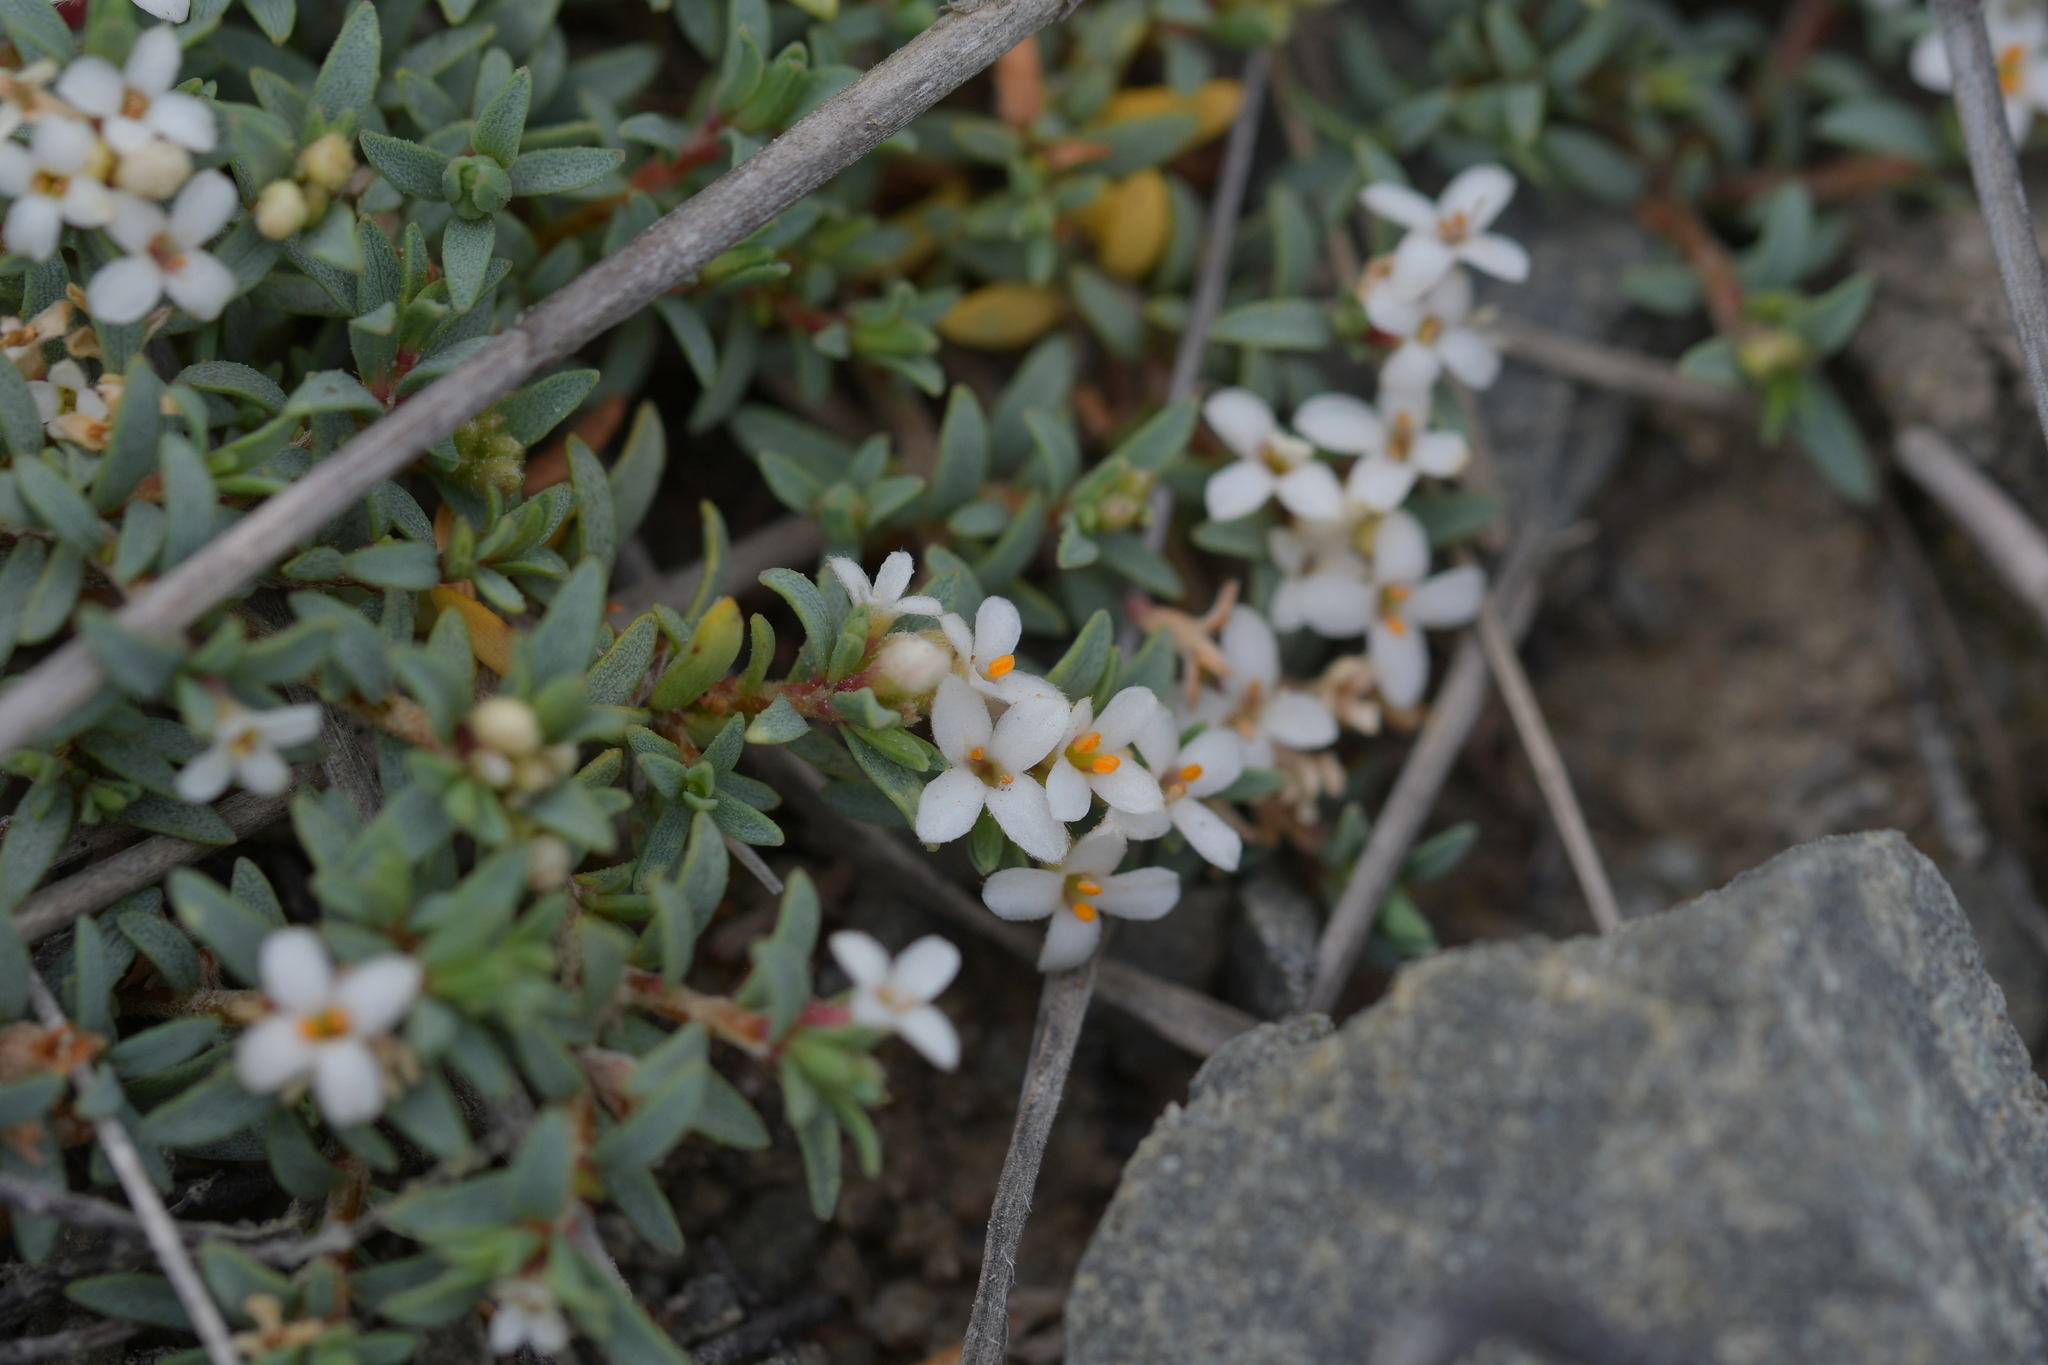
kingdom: Plantae
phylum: Tracheophyta
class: Magnoliopsida
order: Malvales
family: Thymelaeaceae
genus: Pimelea
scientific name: Pimelea prostrata
